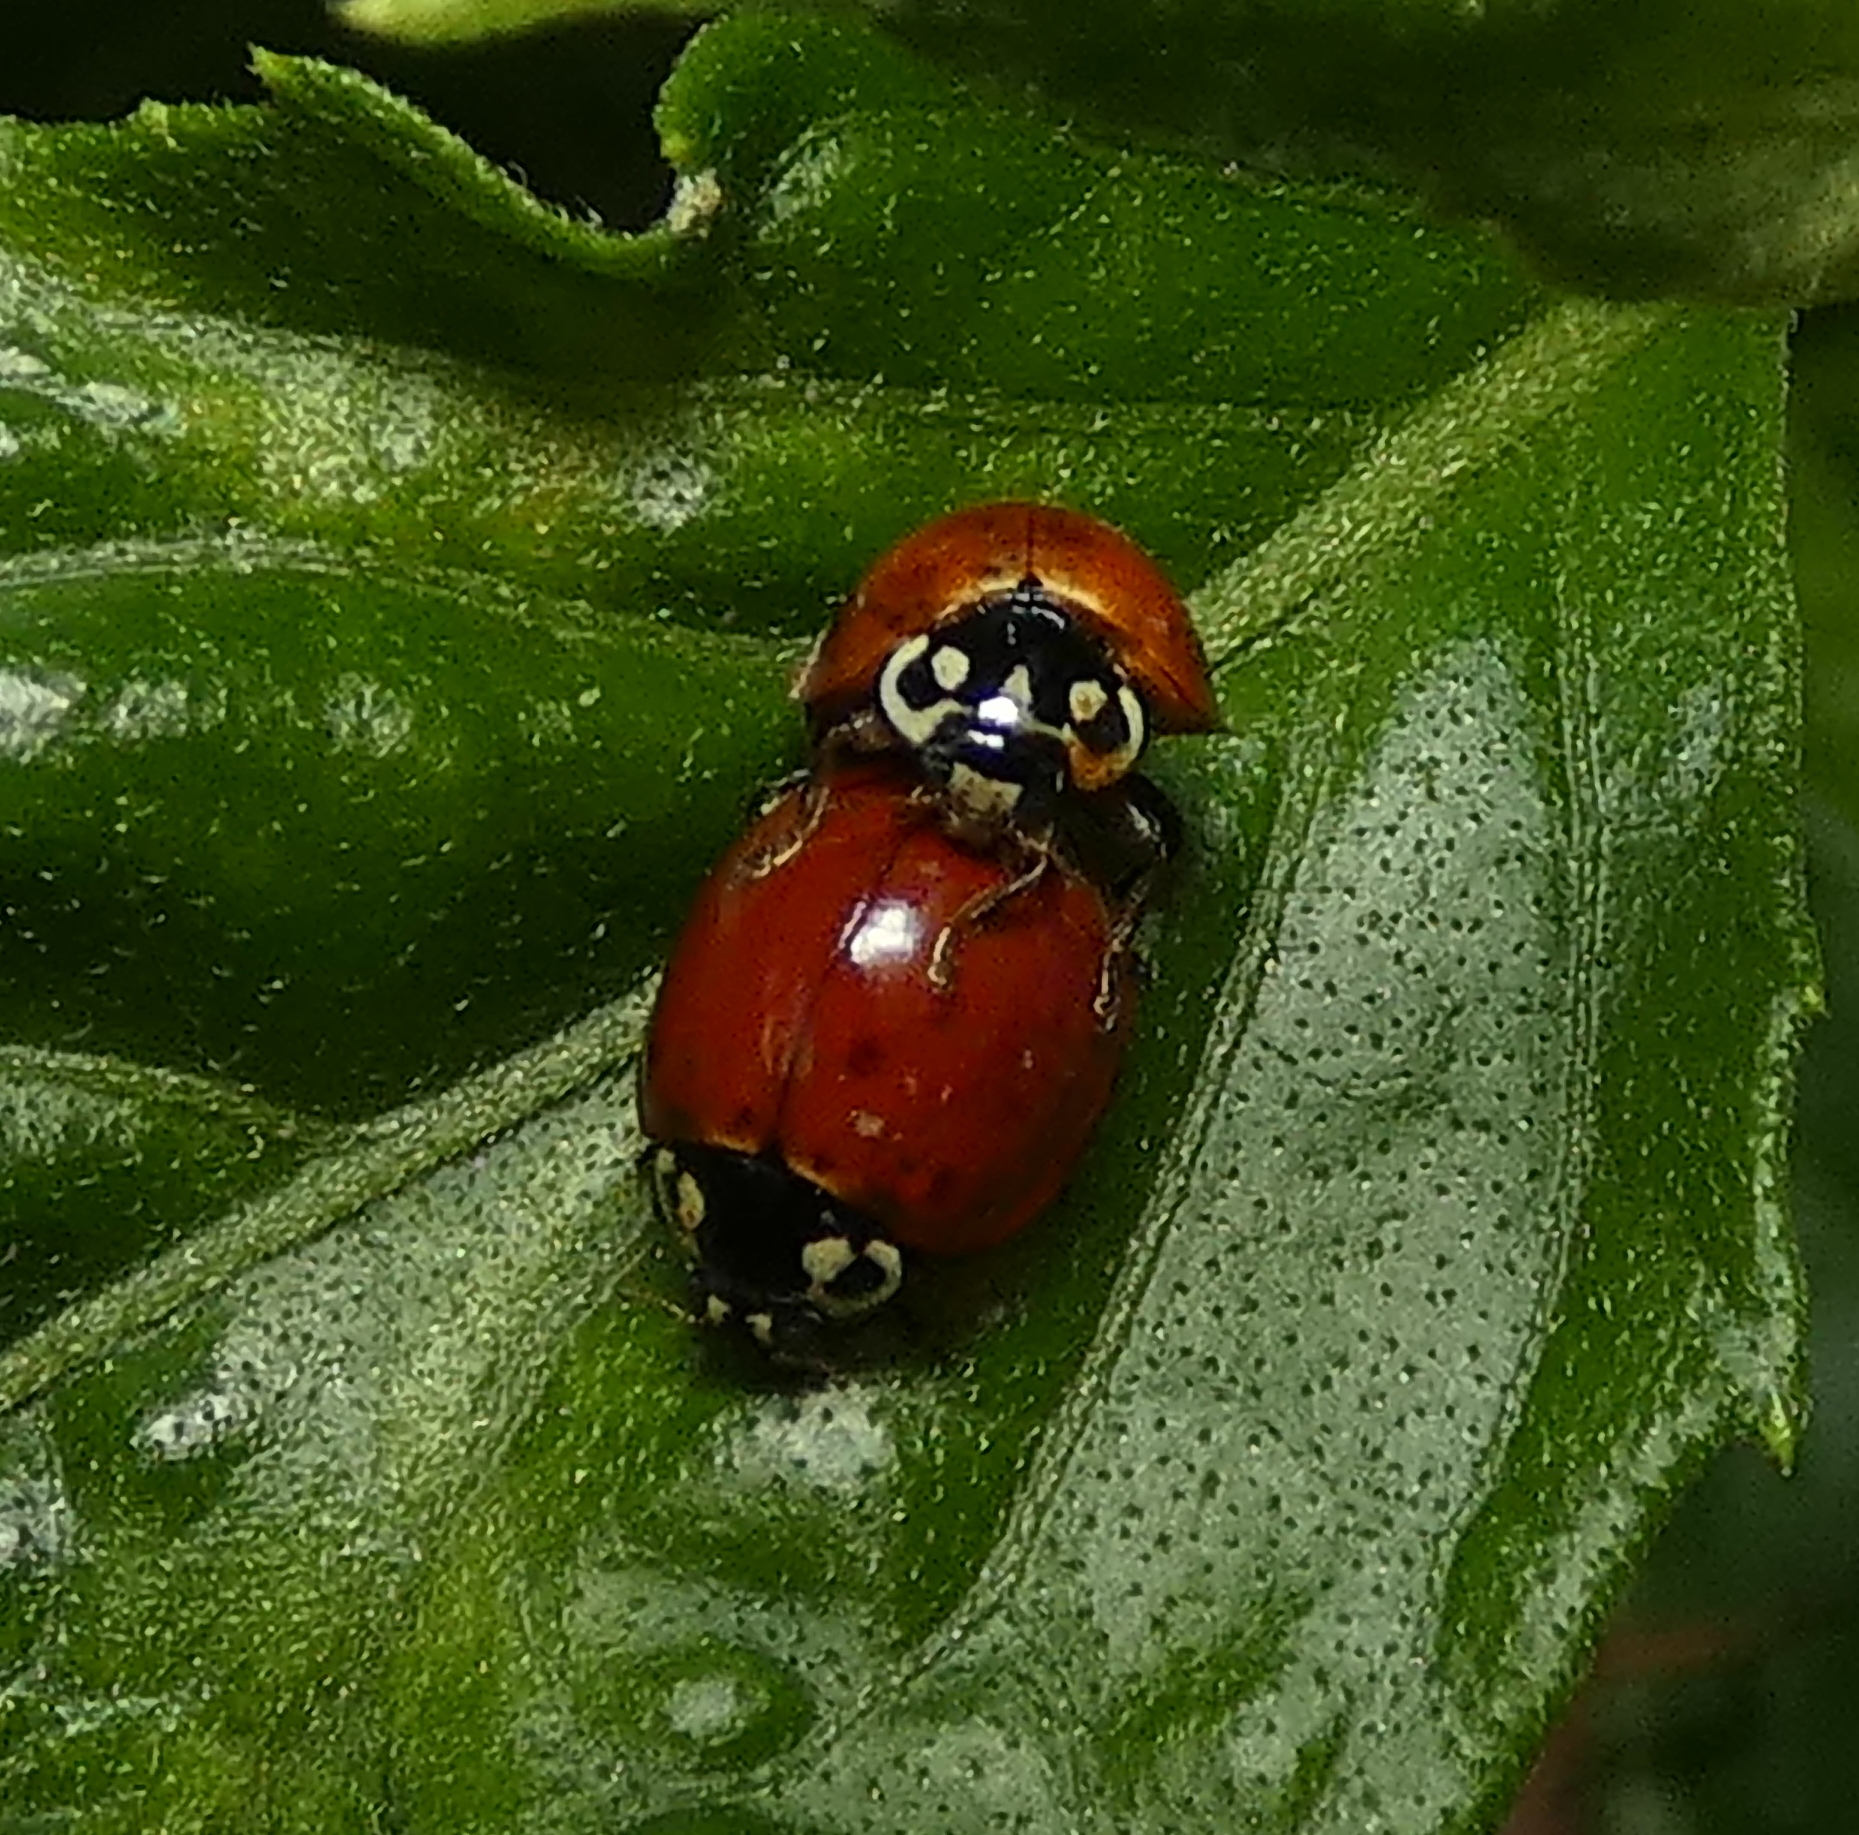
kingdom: Animalia
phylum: Arthropoda
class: Insecta
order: Coleoptera
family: Coccinellidae
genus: Cycloneda
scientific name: Cycloneda sanguinea
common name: Ladybird beetle
